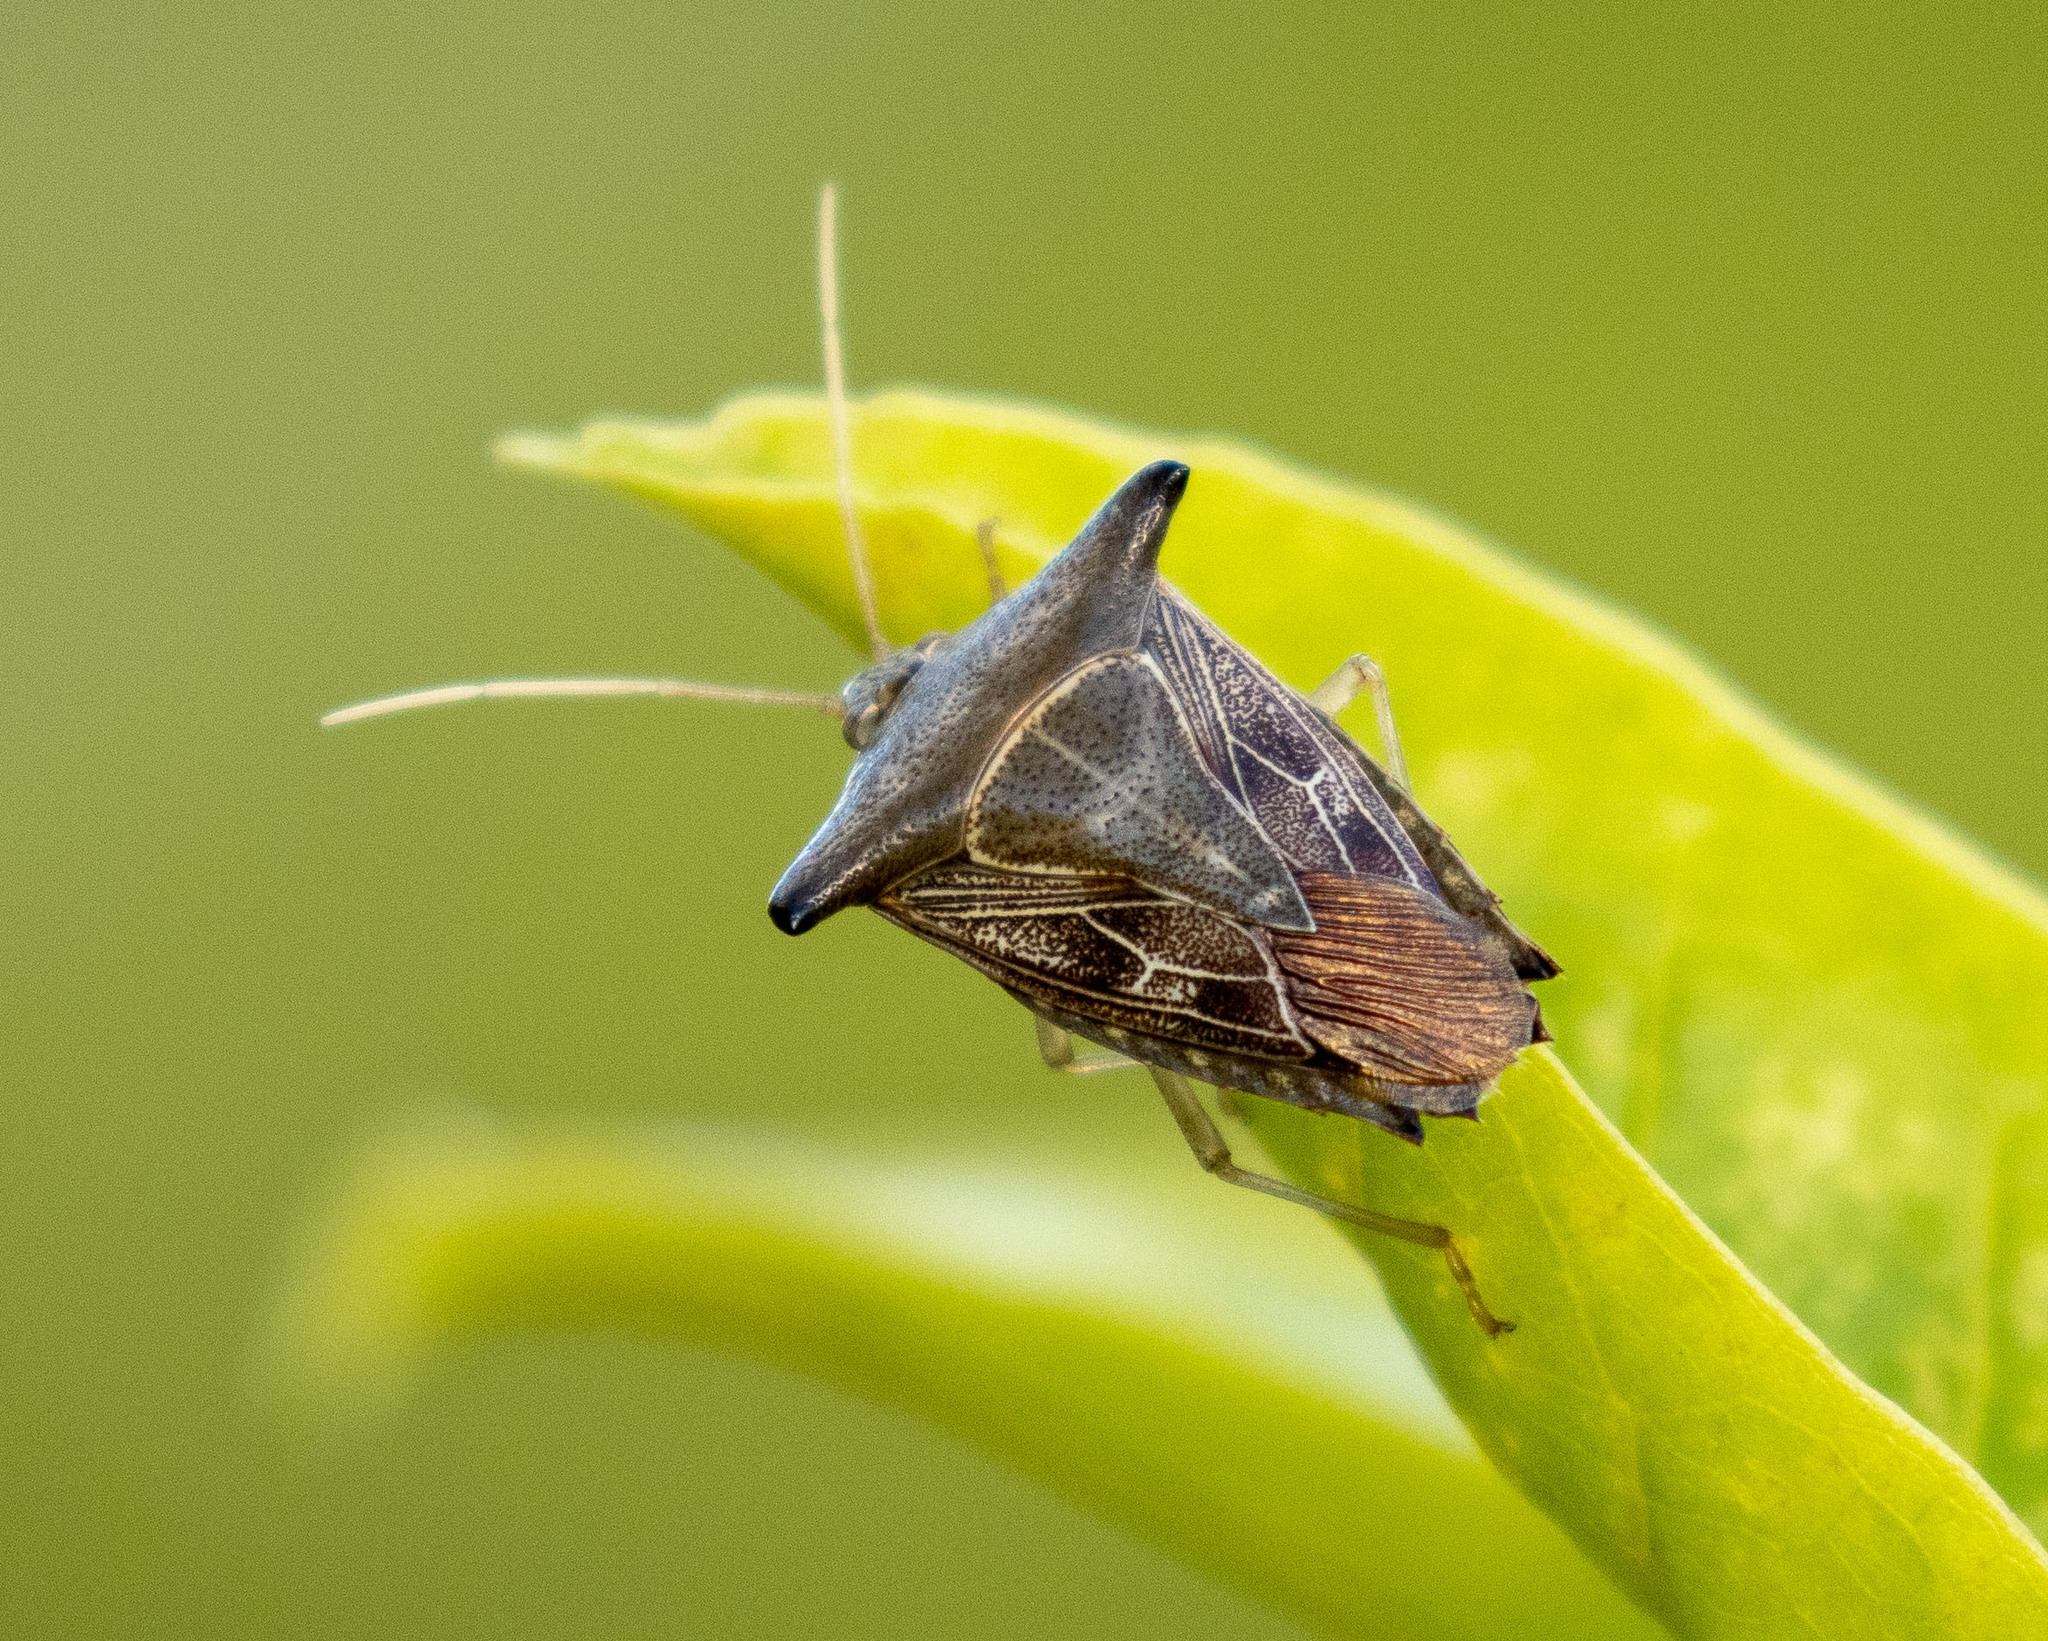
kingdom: Animalia
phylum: Arthropoda
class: Insecta
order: Hemiptera
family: Pentatomidae
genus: Edessa
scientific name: Edessa
